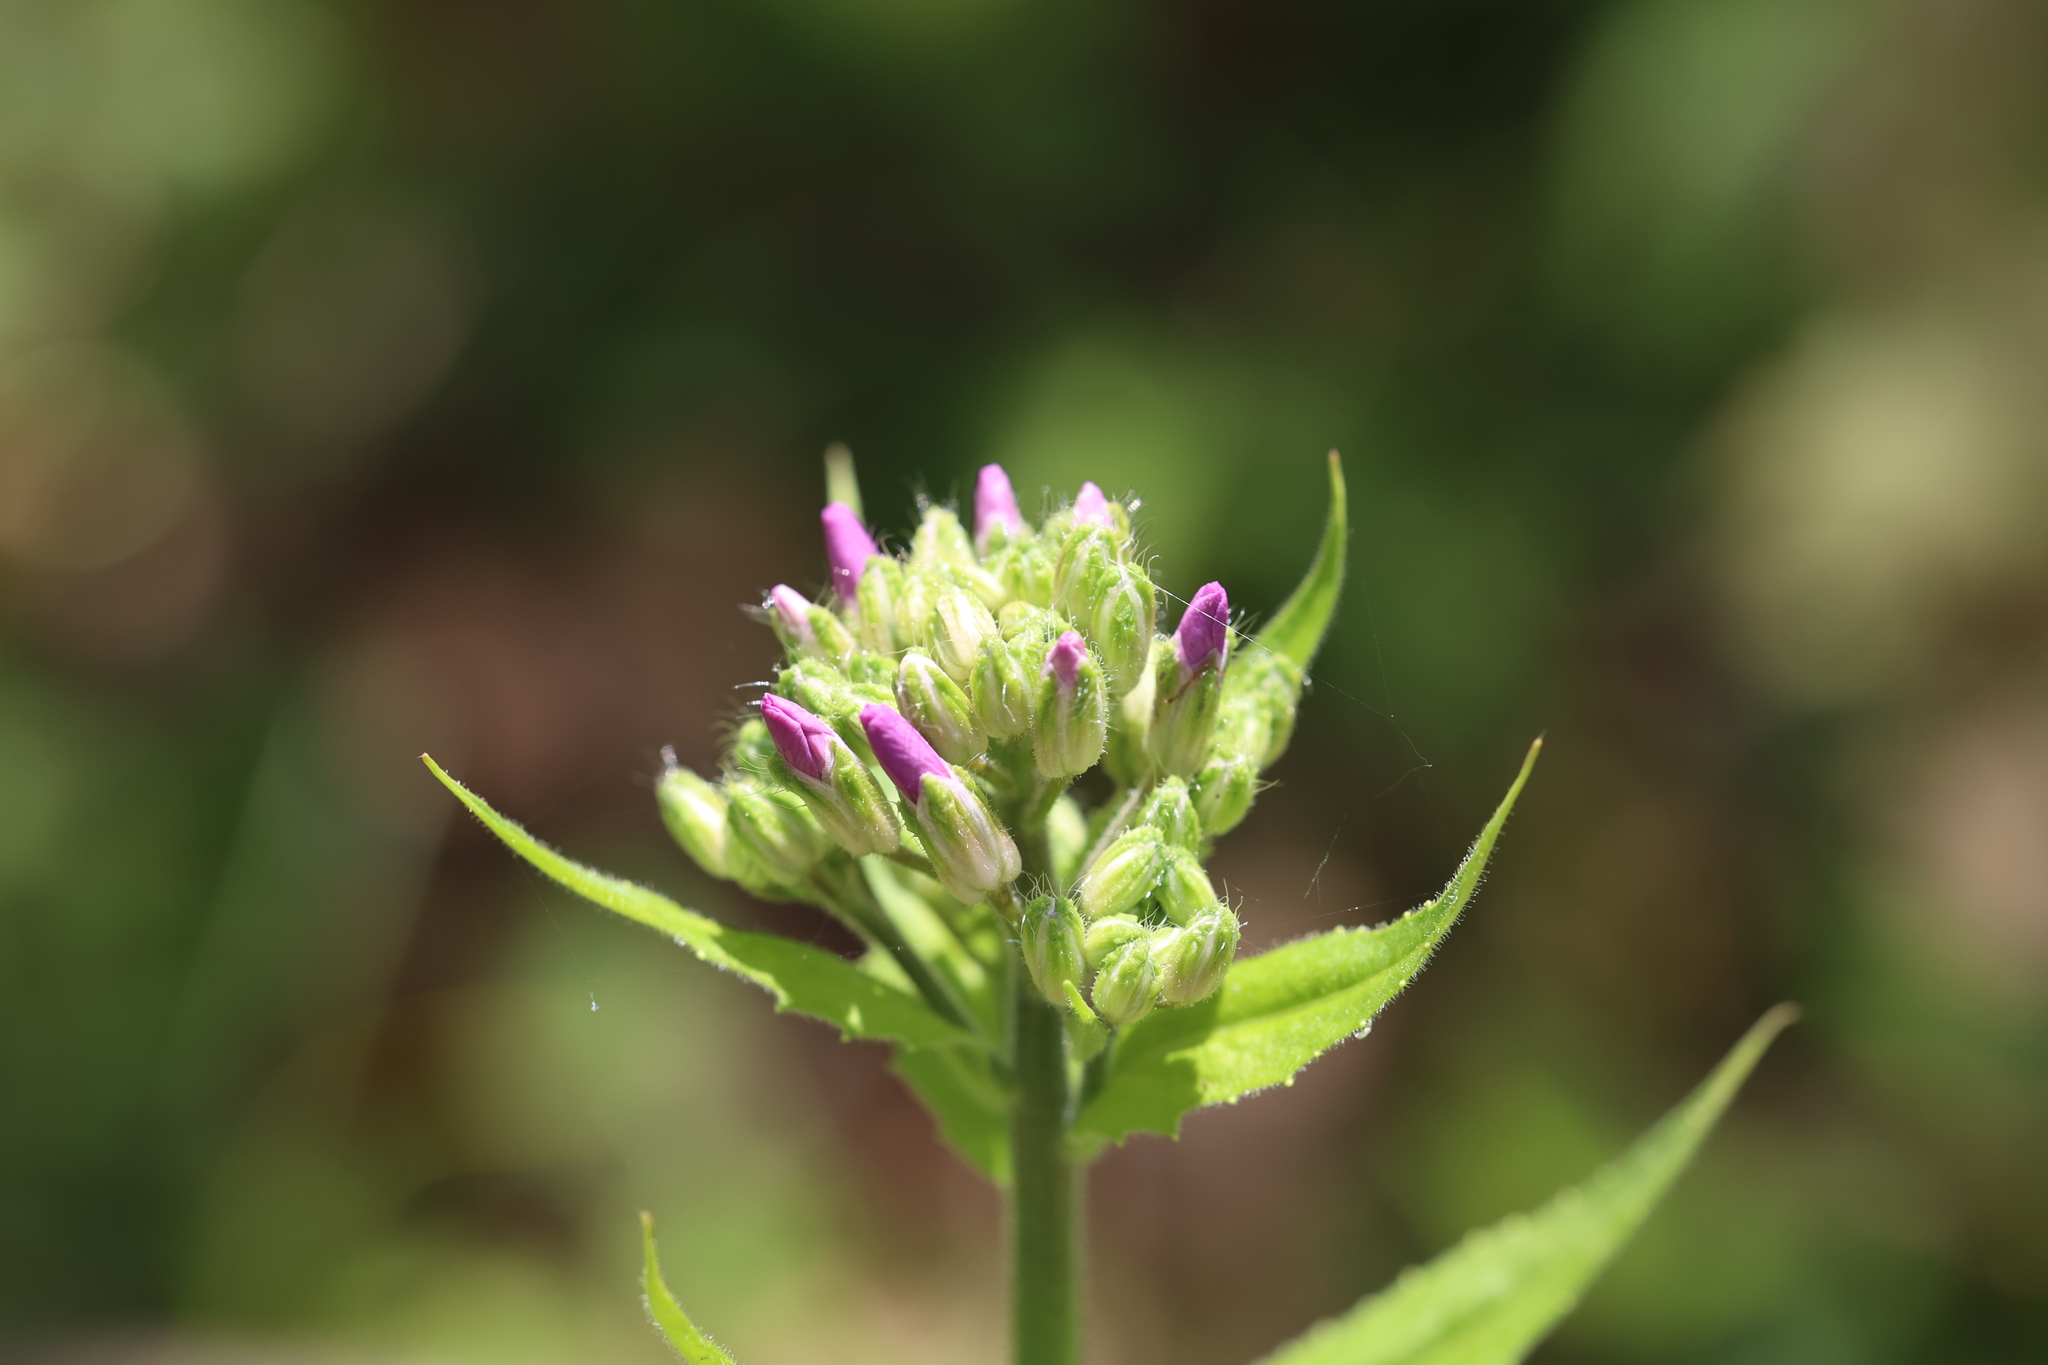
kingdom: Plantae
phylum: Tracheophyta
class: Magnoliopsida
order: Brassicales
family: Brassicaceae
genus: Hesperis
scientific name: Hesperis matronalis
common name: Dame's-violet
